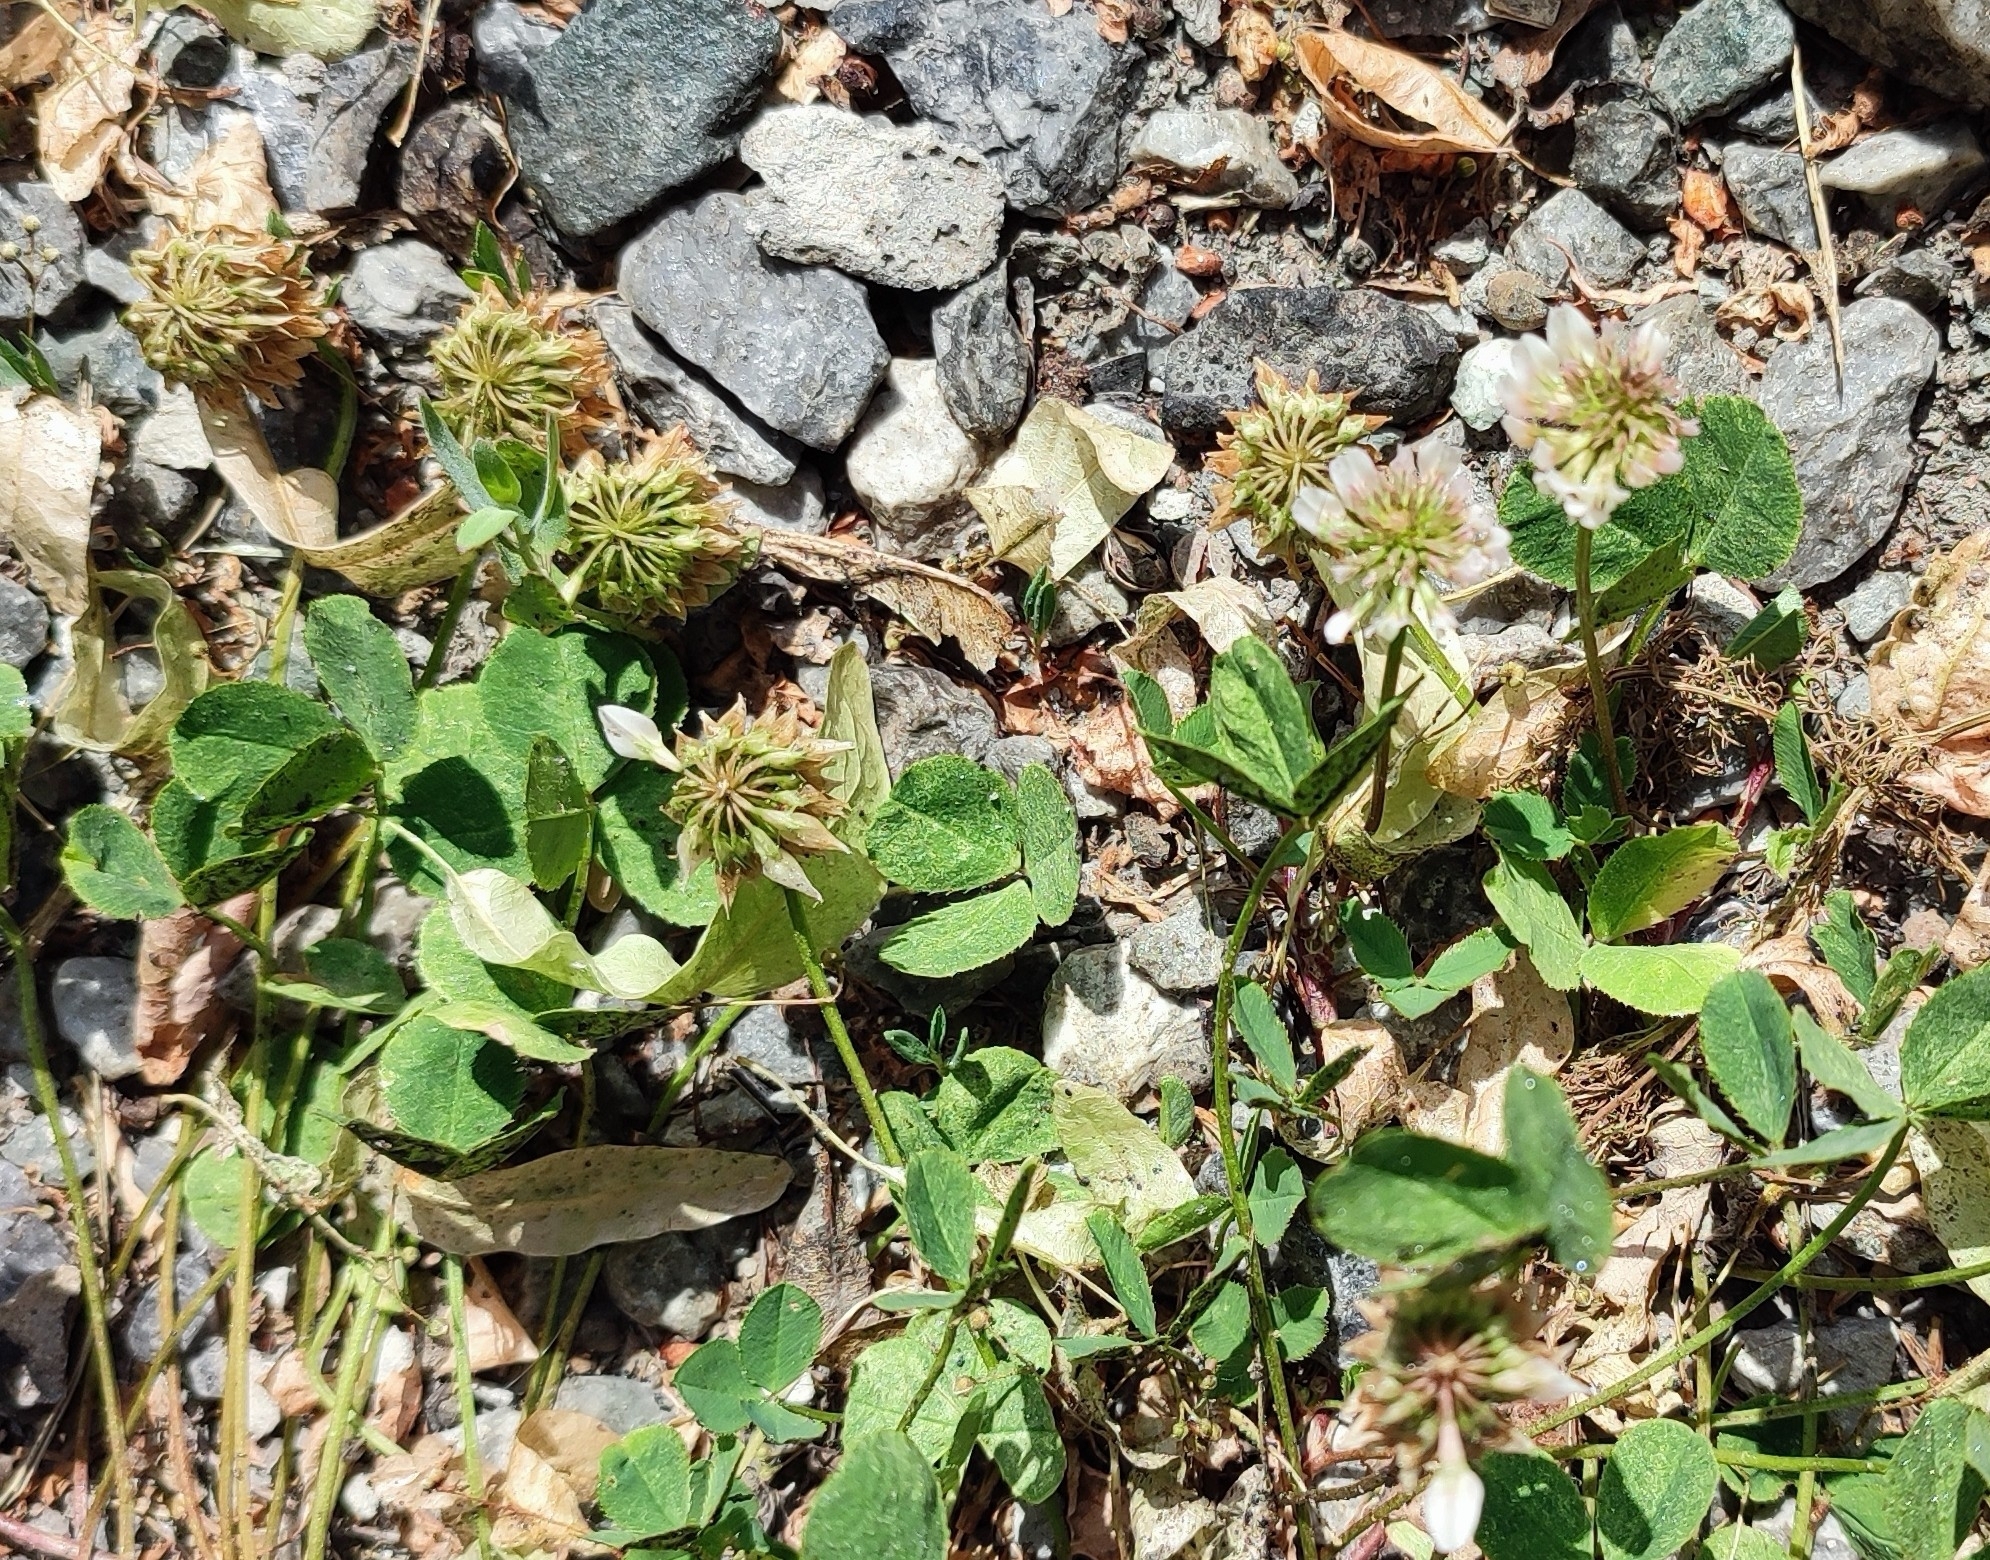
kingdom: Plantae
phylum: Tracheophyta
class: Magnoliopsida
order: Fabales
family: Fabaceae
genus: Trifolium
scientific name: Trifolium repens
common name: White clover
